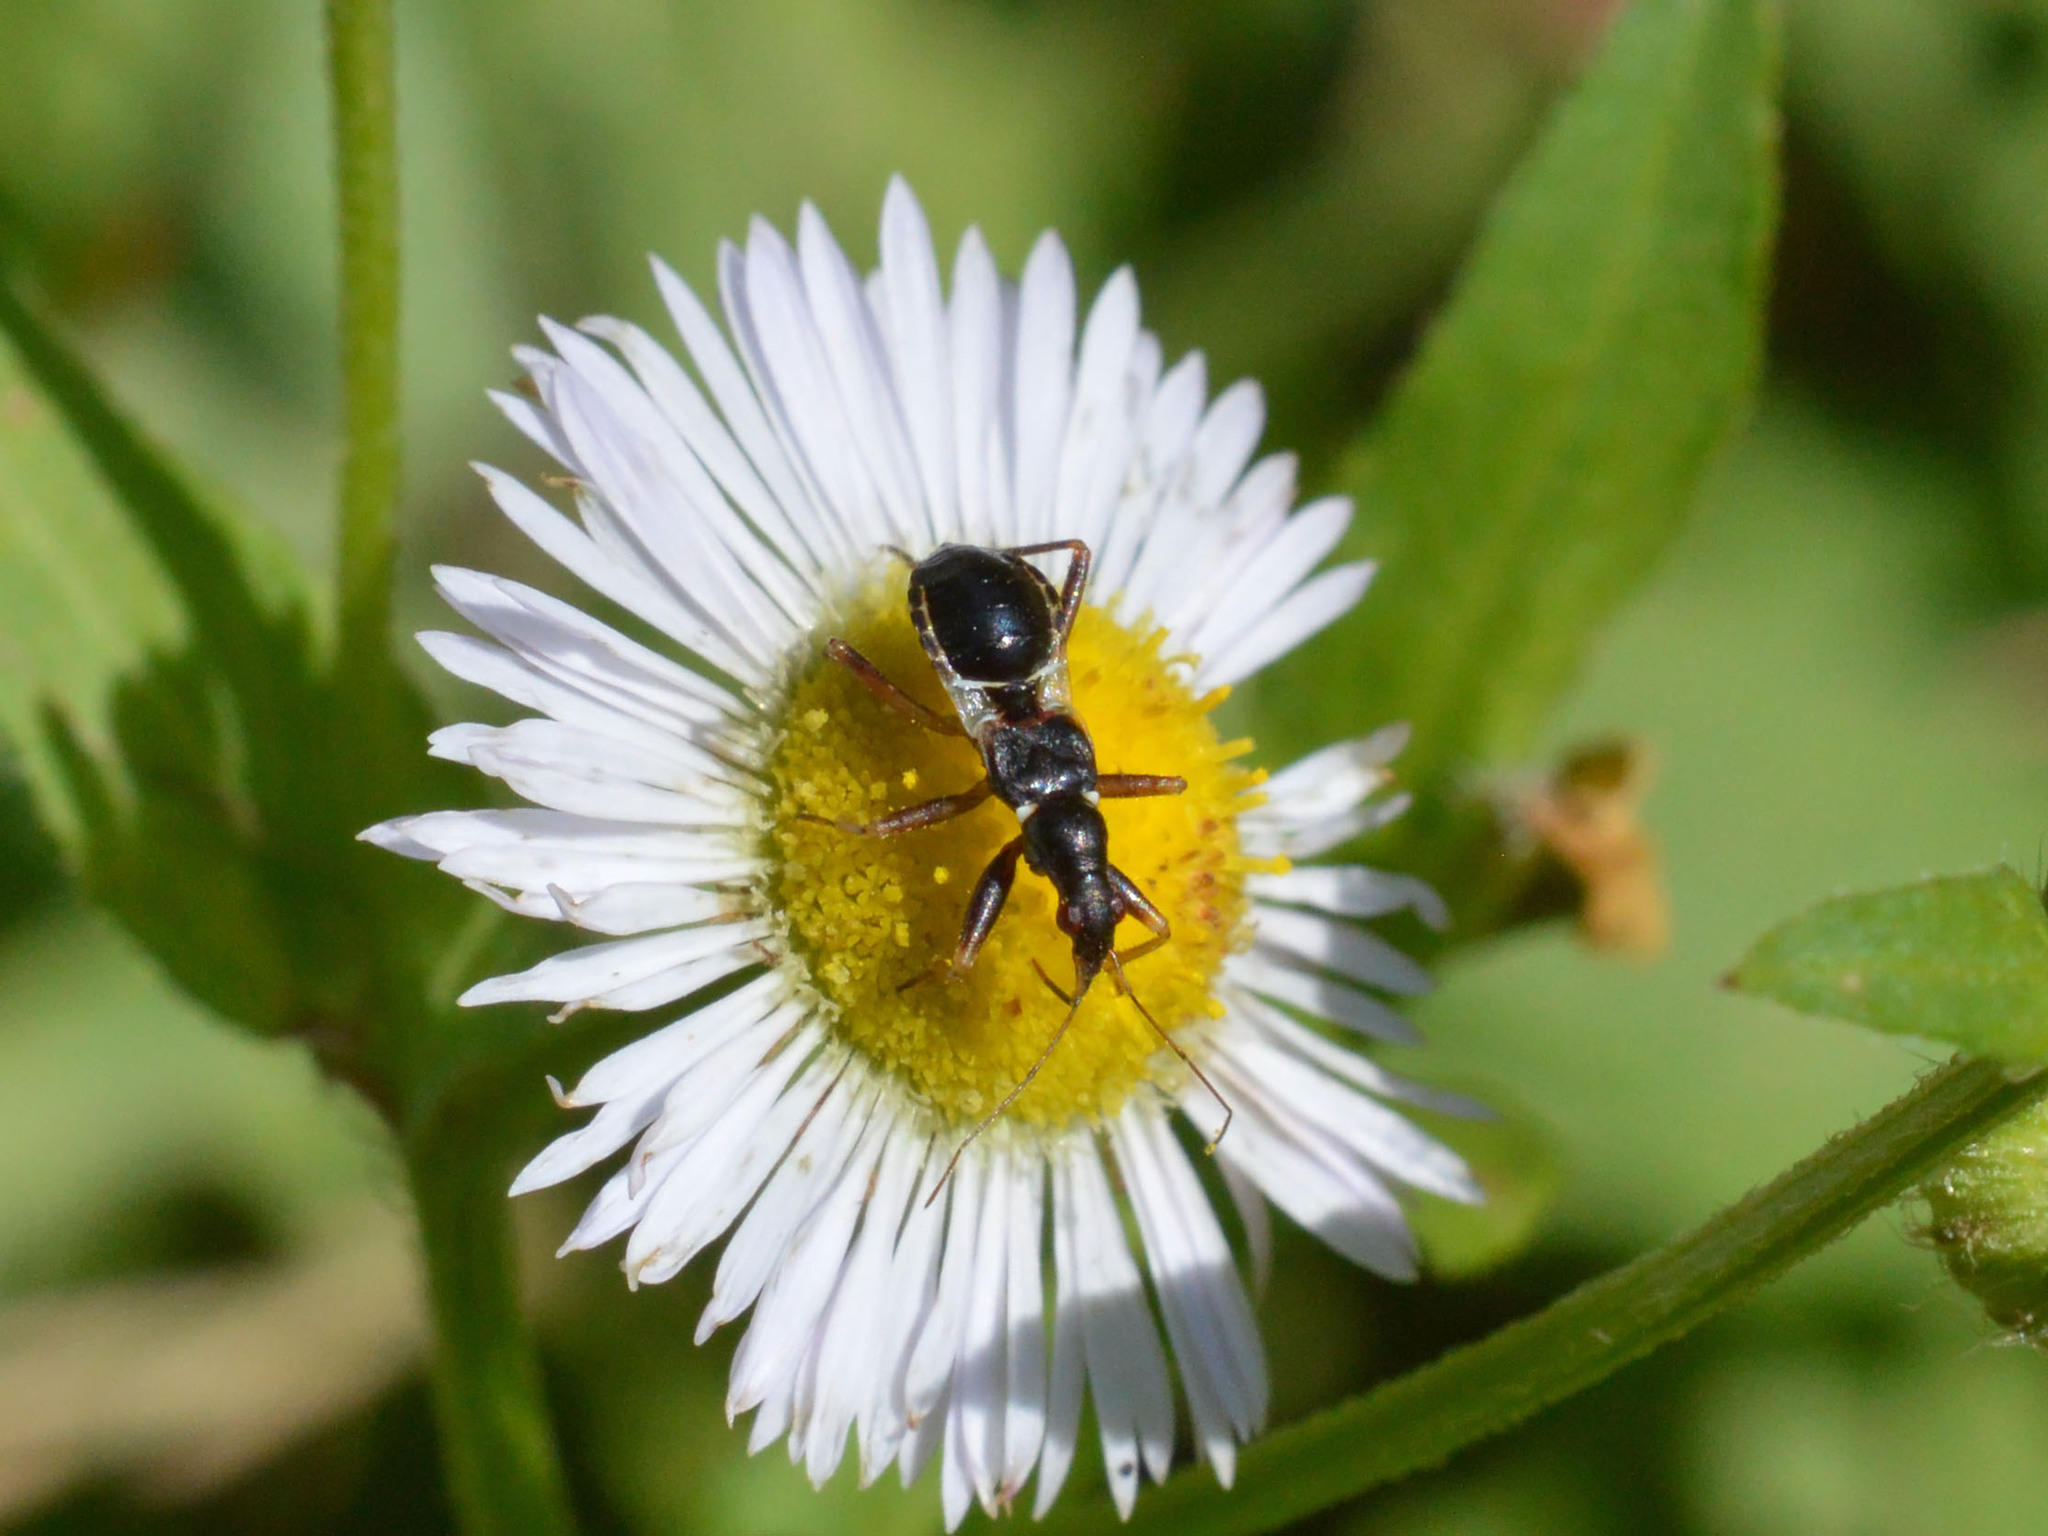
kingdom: Animalia
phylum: Arthropoda
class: Insecta
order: Hemiptera
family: Nabidae
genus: Himacerus
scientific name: Himacerus mirmicoides
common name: Ant damsel bug
